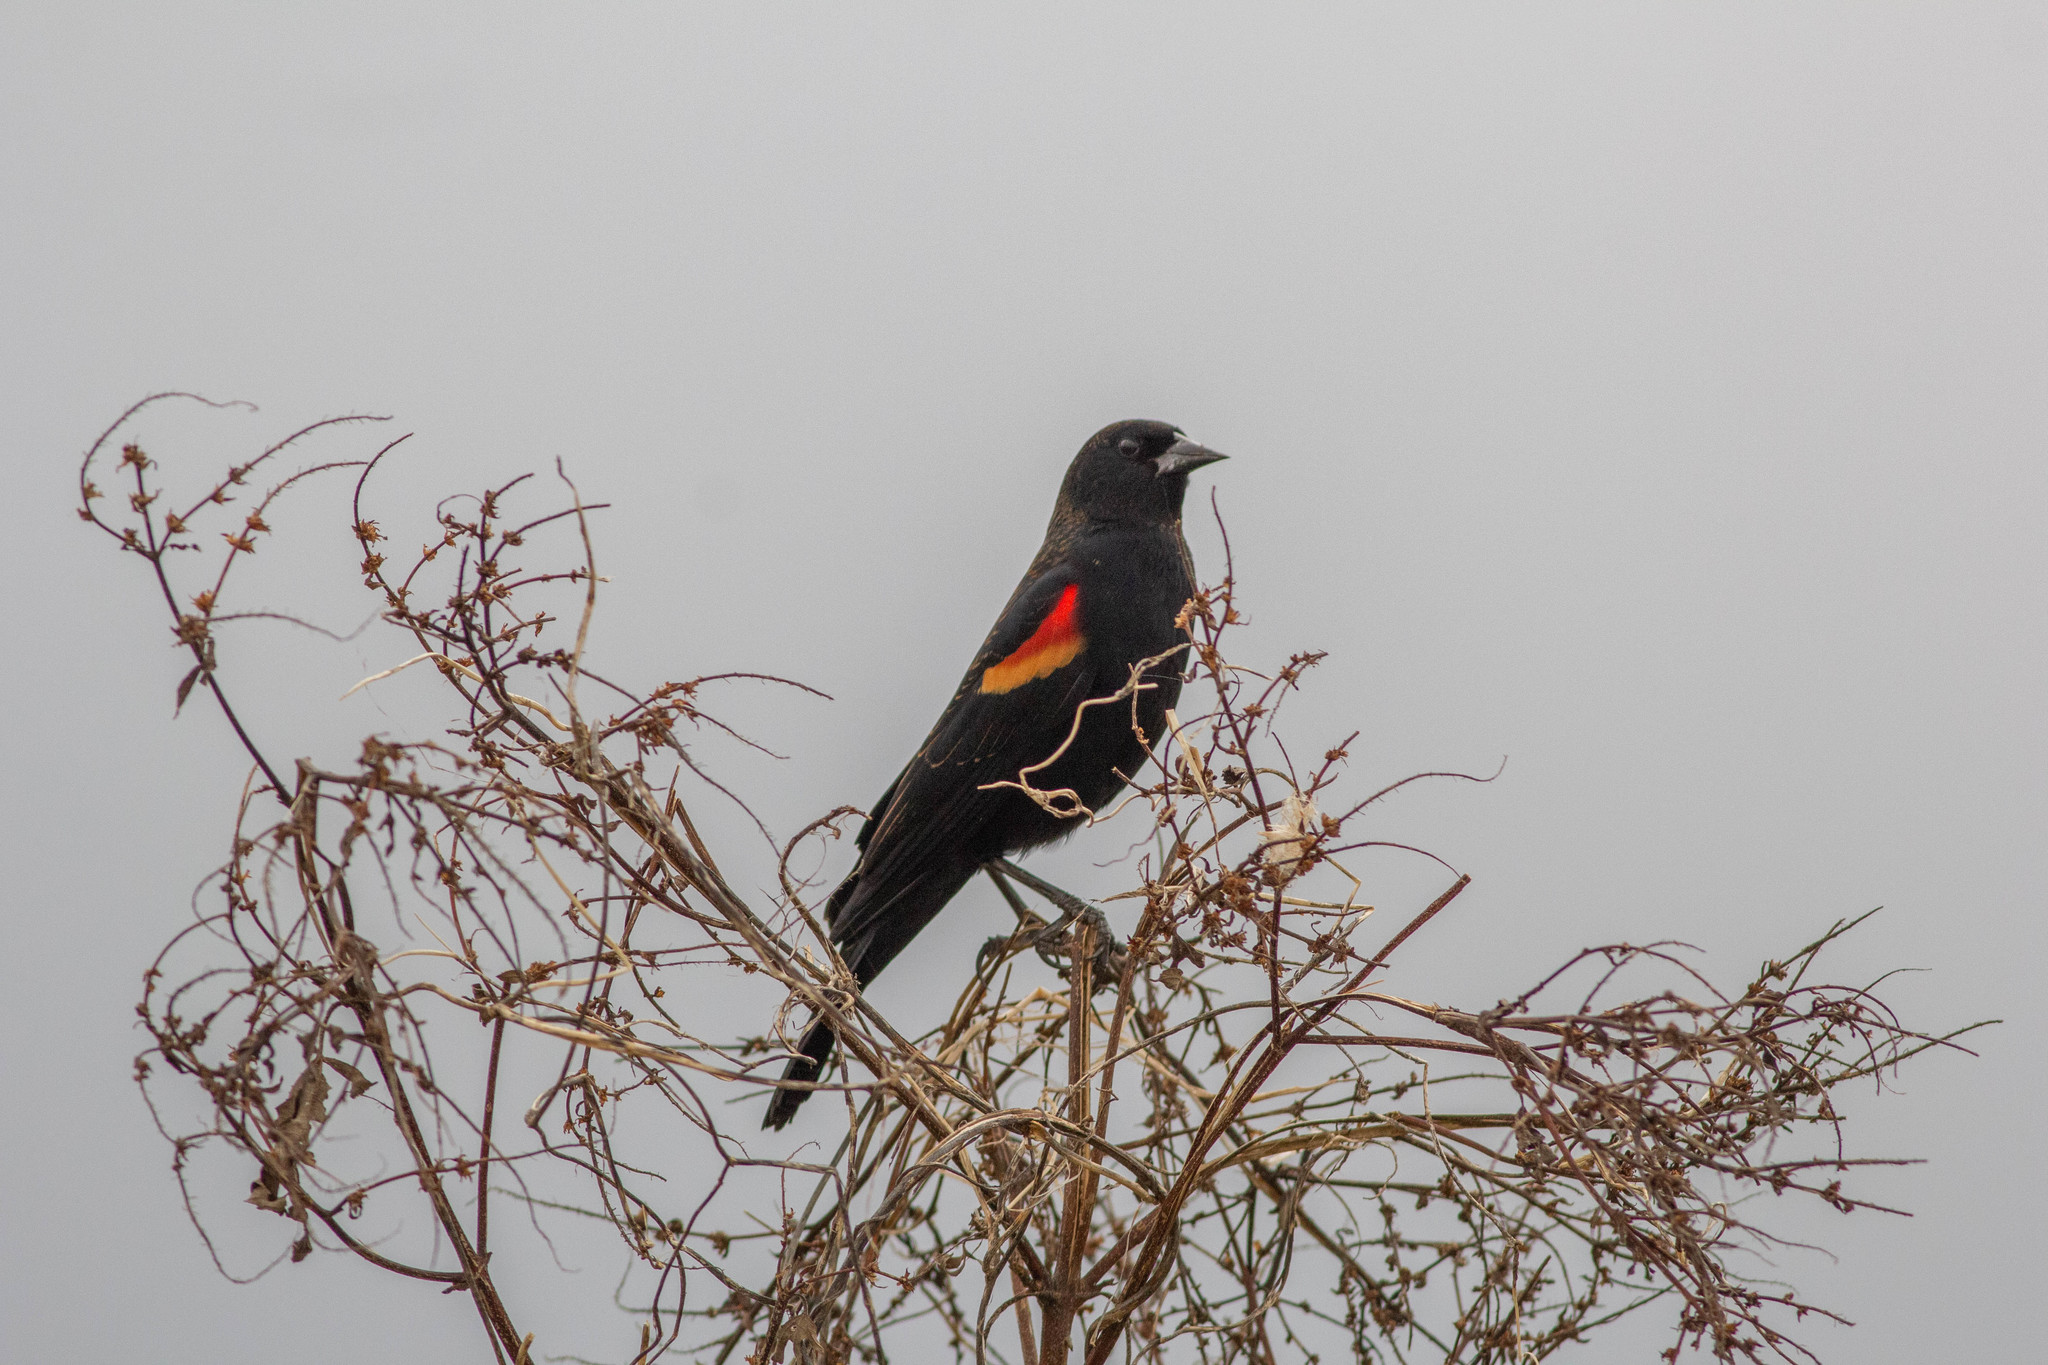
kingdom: Animalia
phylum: Chordata
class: Aves
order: Passeriformes
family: Icteridae
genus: Agelaius
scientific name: Agelaius phoeniceus
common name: Red-winged blackbird
